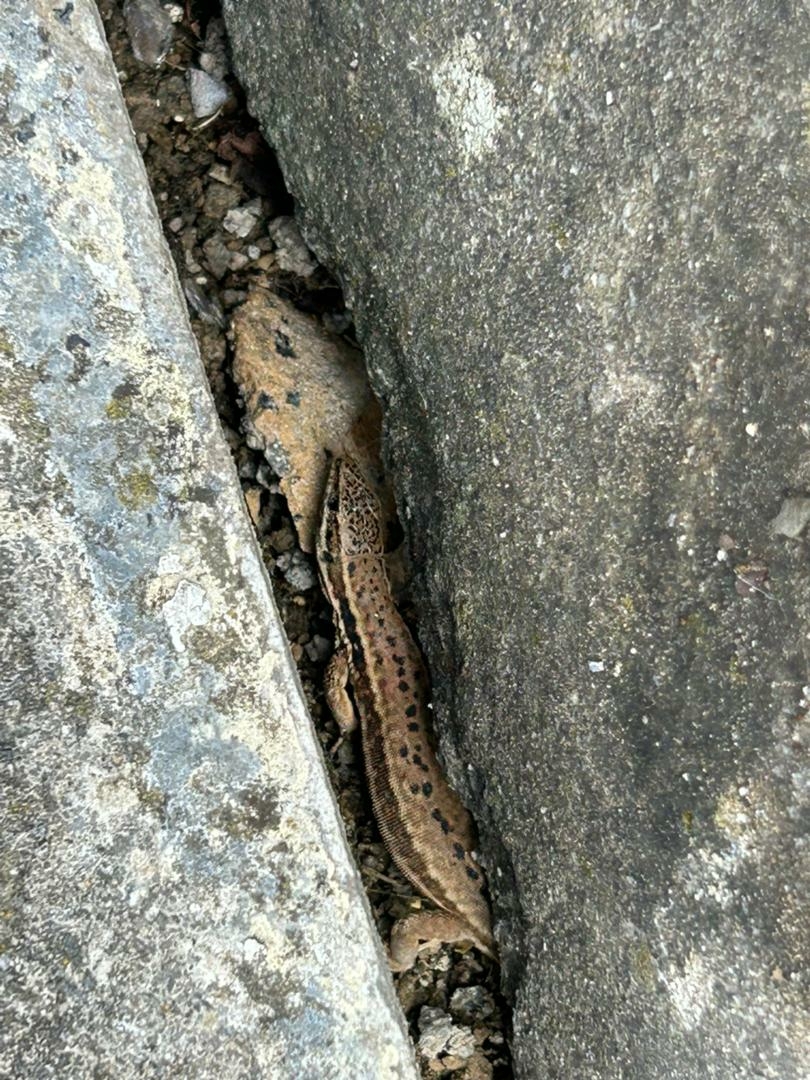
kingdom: Animalia
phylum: Chordata
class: Squamata
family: Lacertidae
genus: Podarcis
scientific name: Podarcis muralis
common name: Common wall lizard
